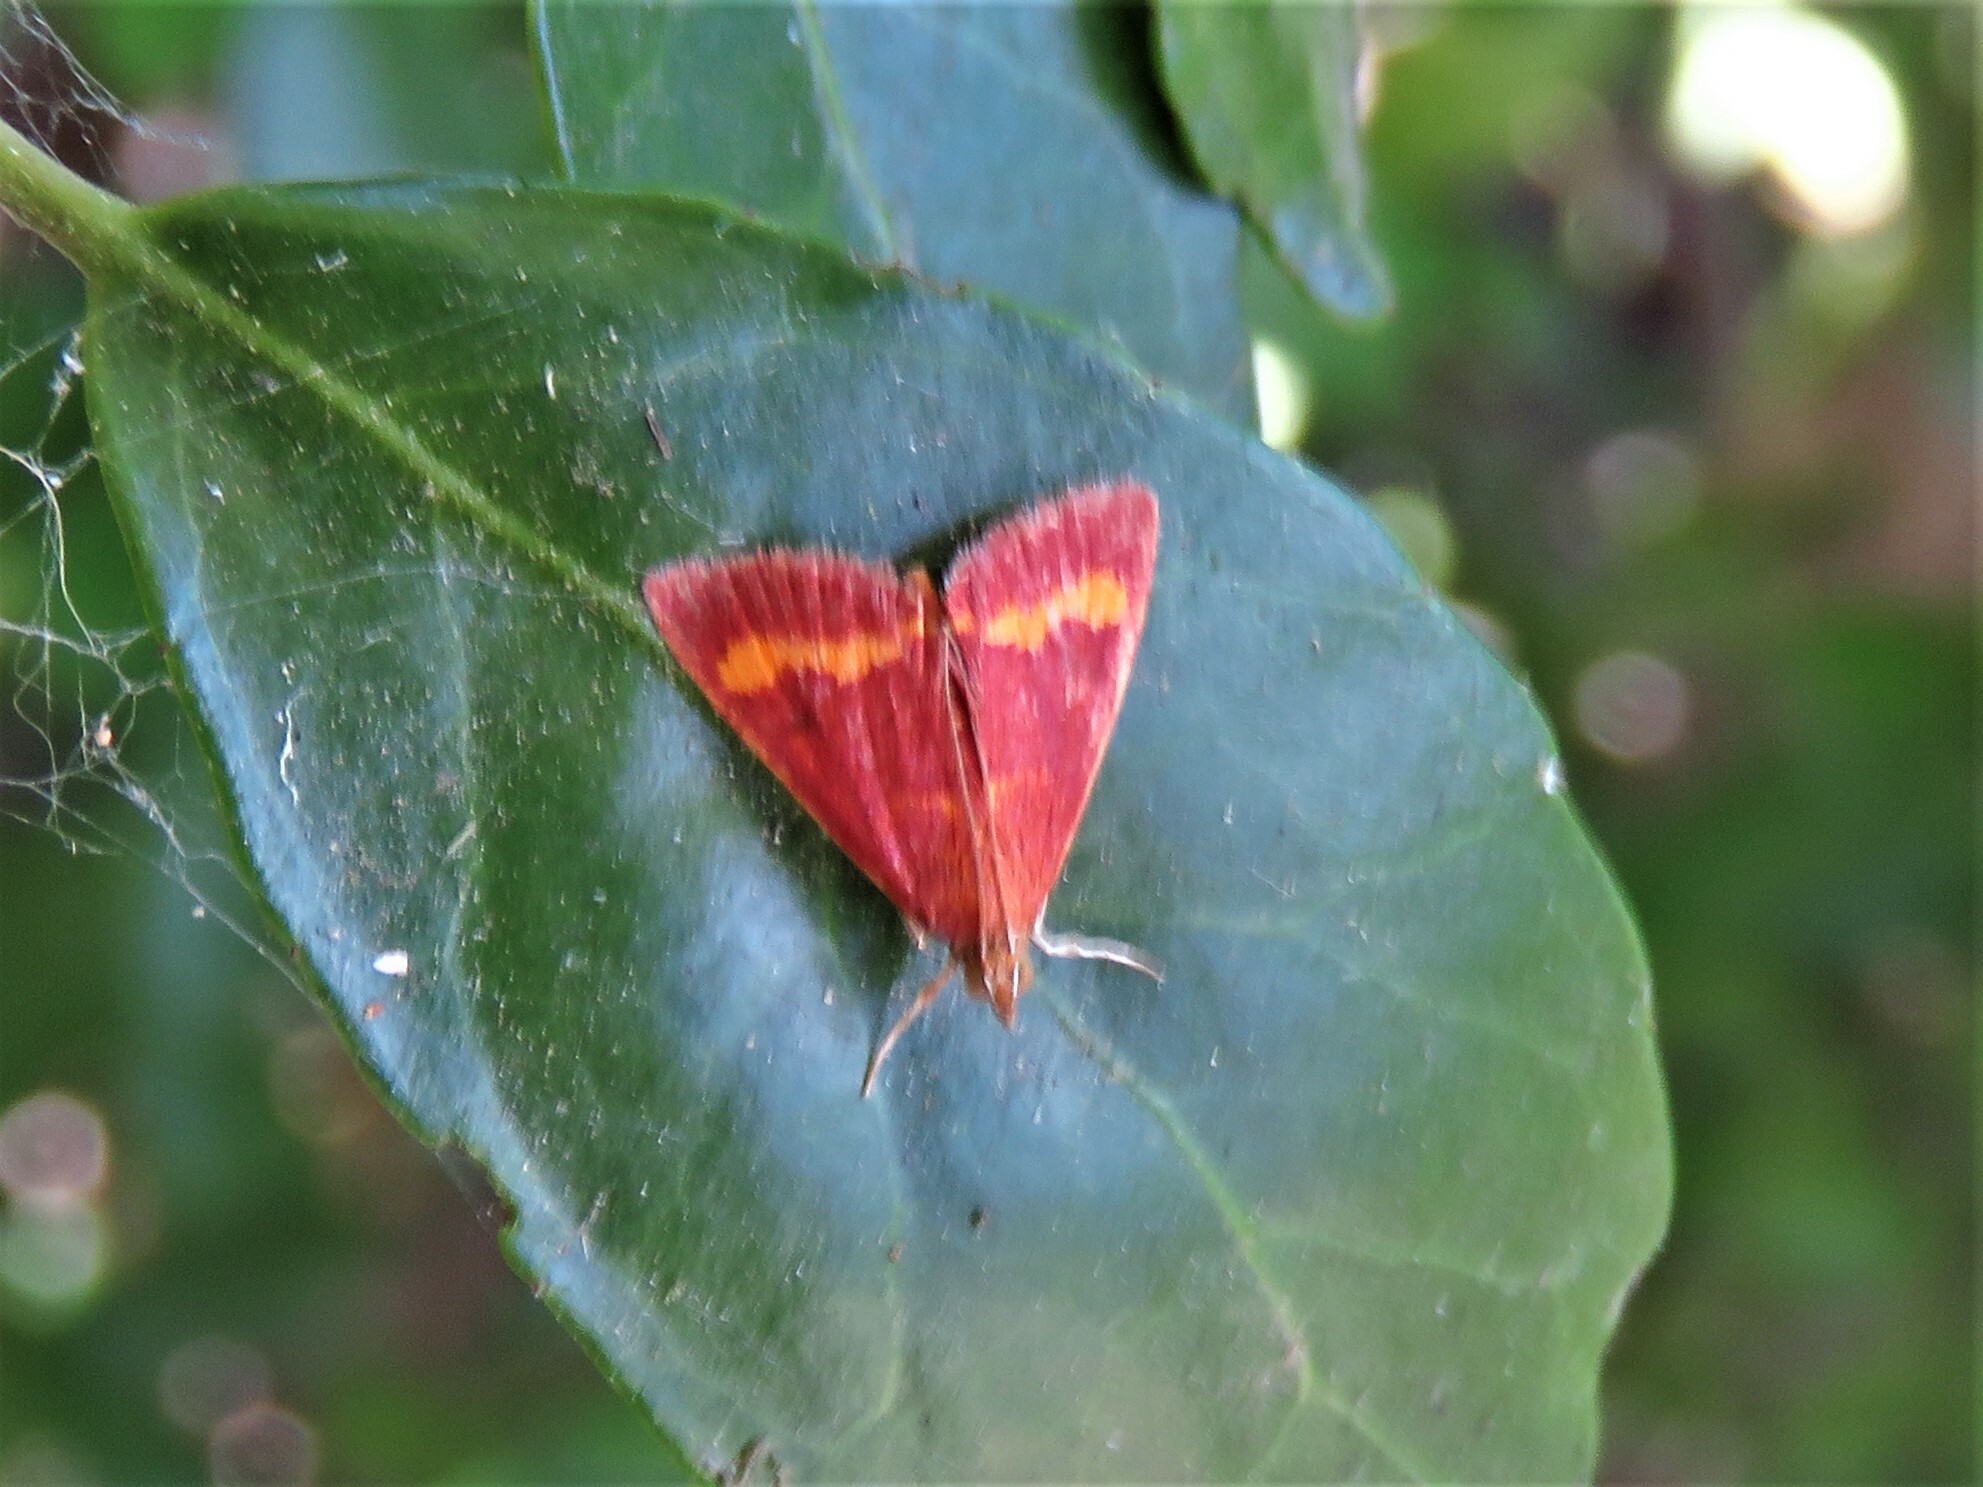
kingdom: Animalia
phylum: Arthropoda
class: Insecta
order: Lepidoptera
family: Crambidae
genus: Pyrausta
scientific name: Pyrausta pseuderosnealis
